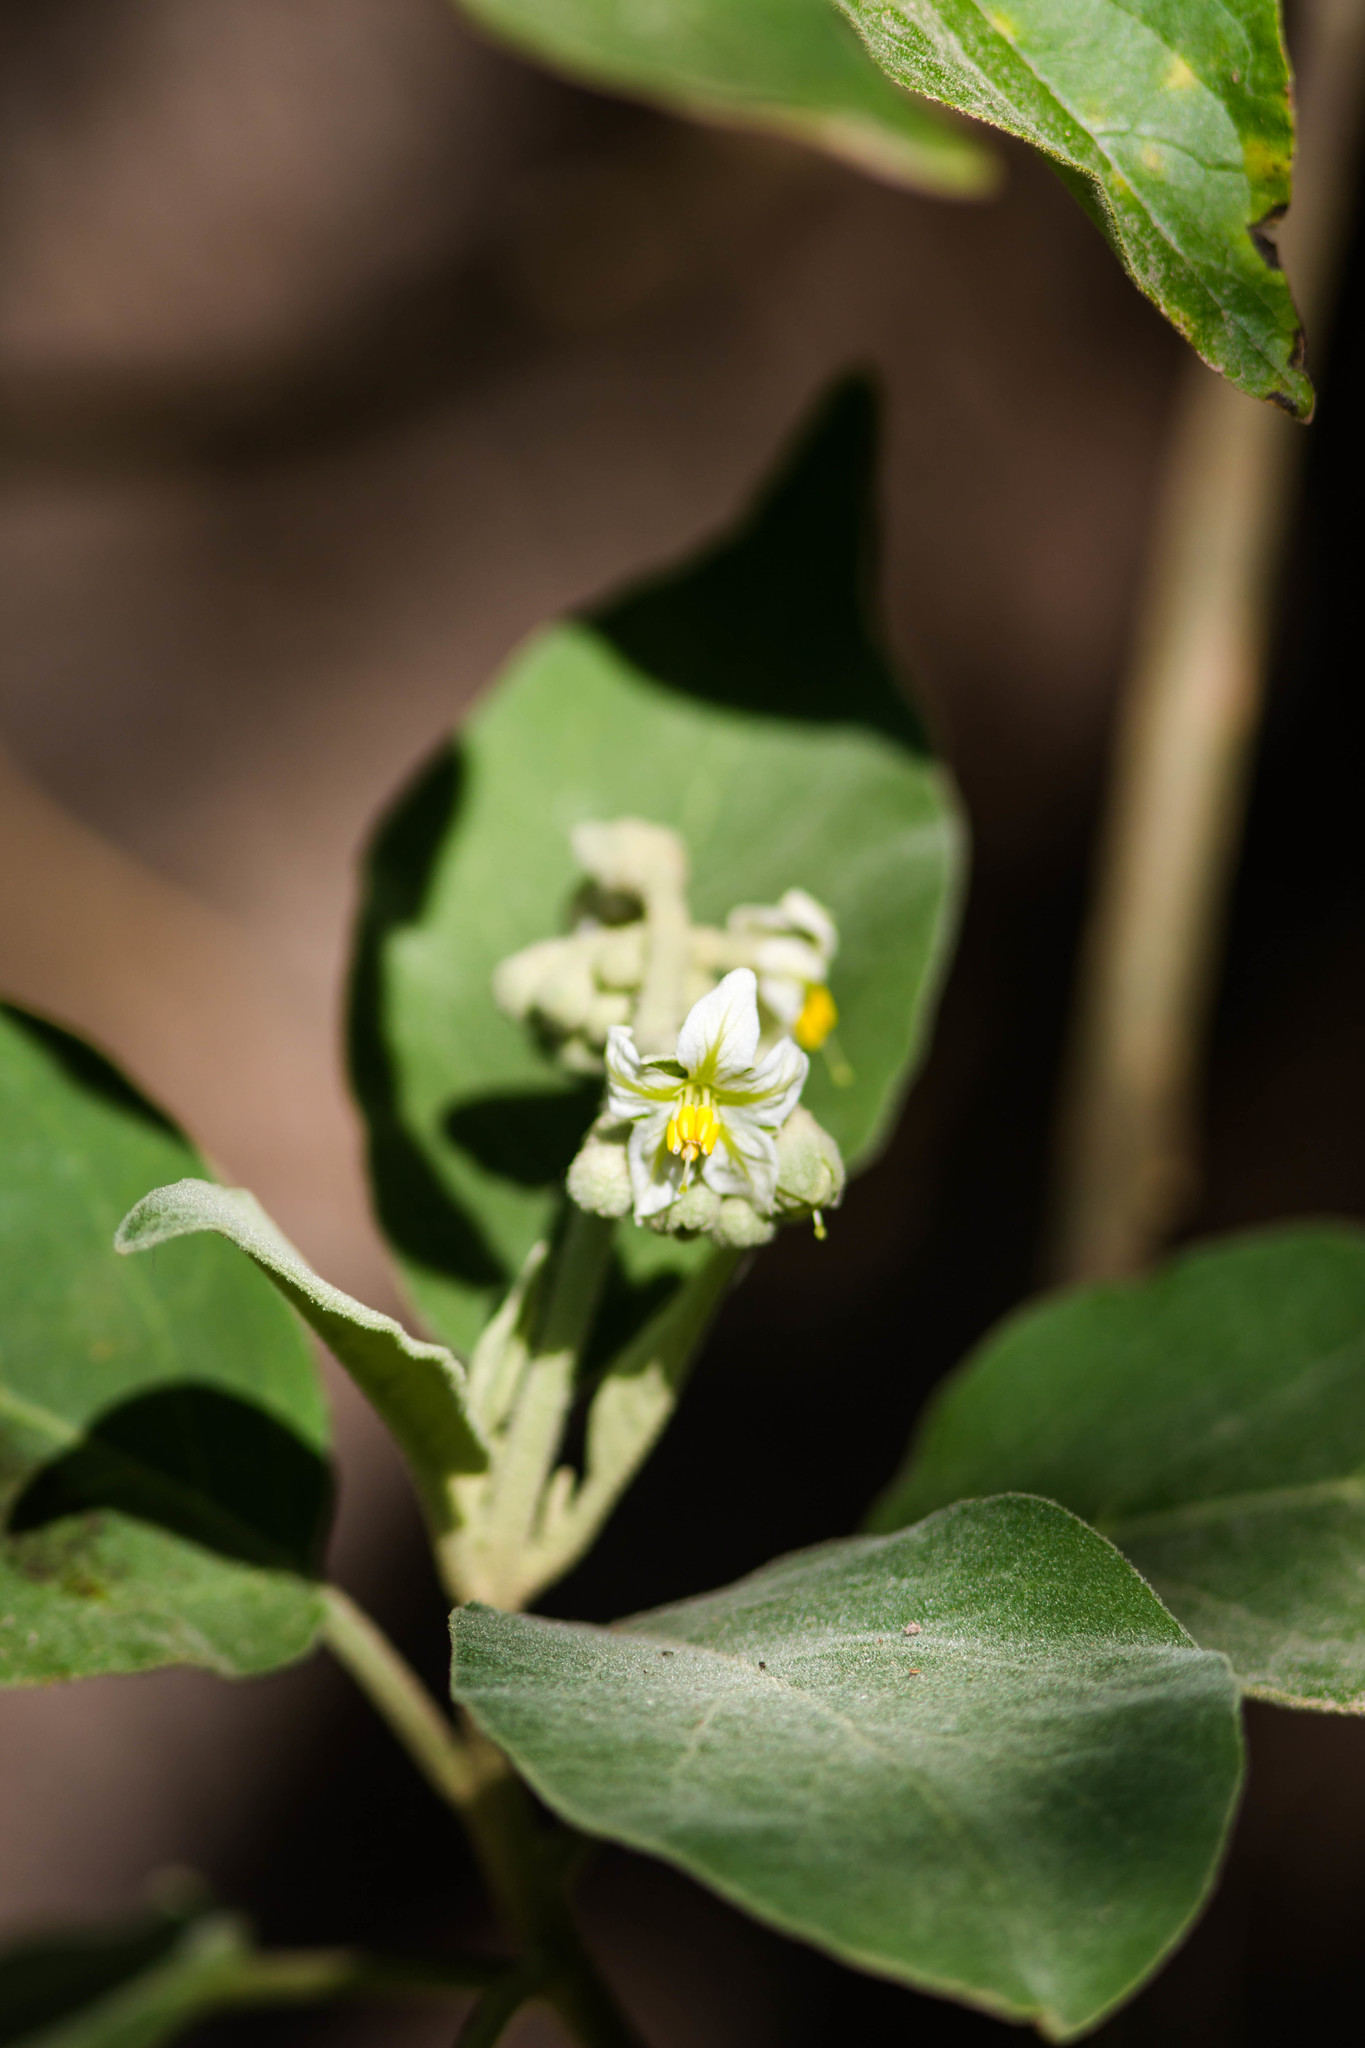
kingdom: Plantae
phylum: Tracheophyta
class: Magnoliopsida
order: Solanales
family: Solanaceae
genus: Solanum
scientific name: Solanum erianthum
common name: Tobacco-tree
